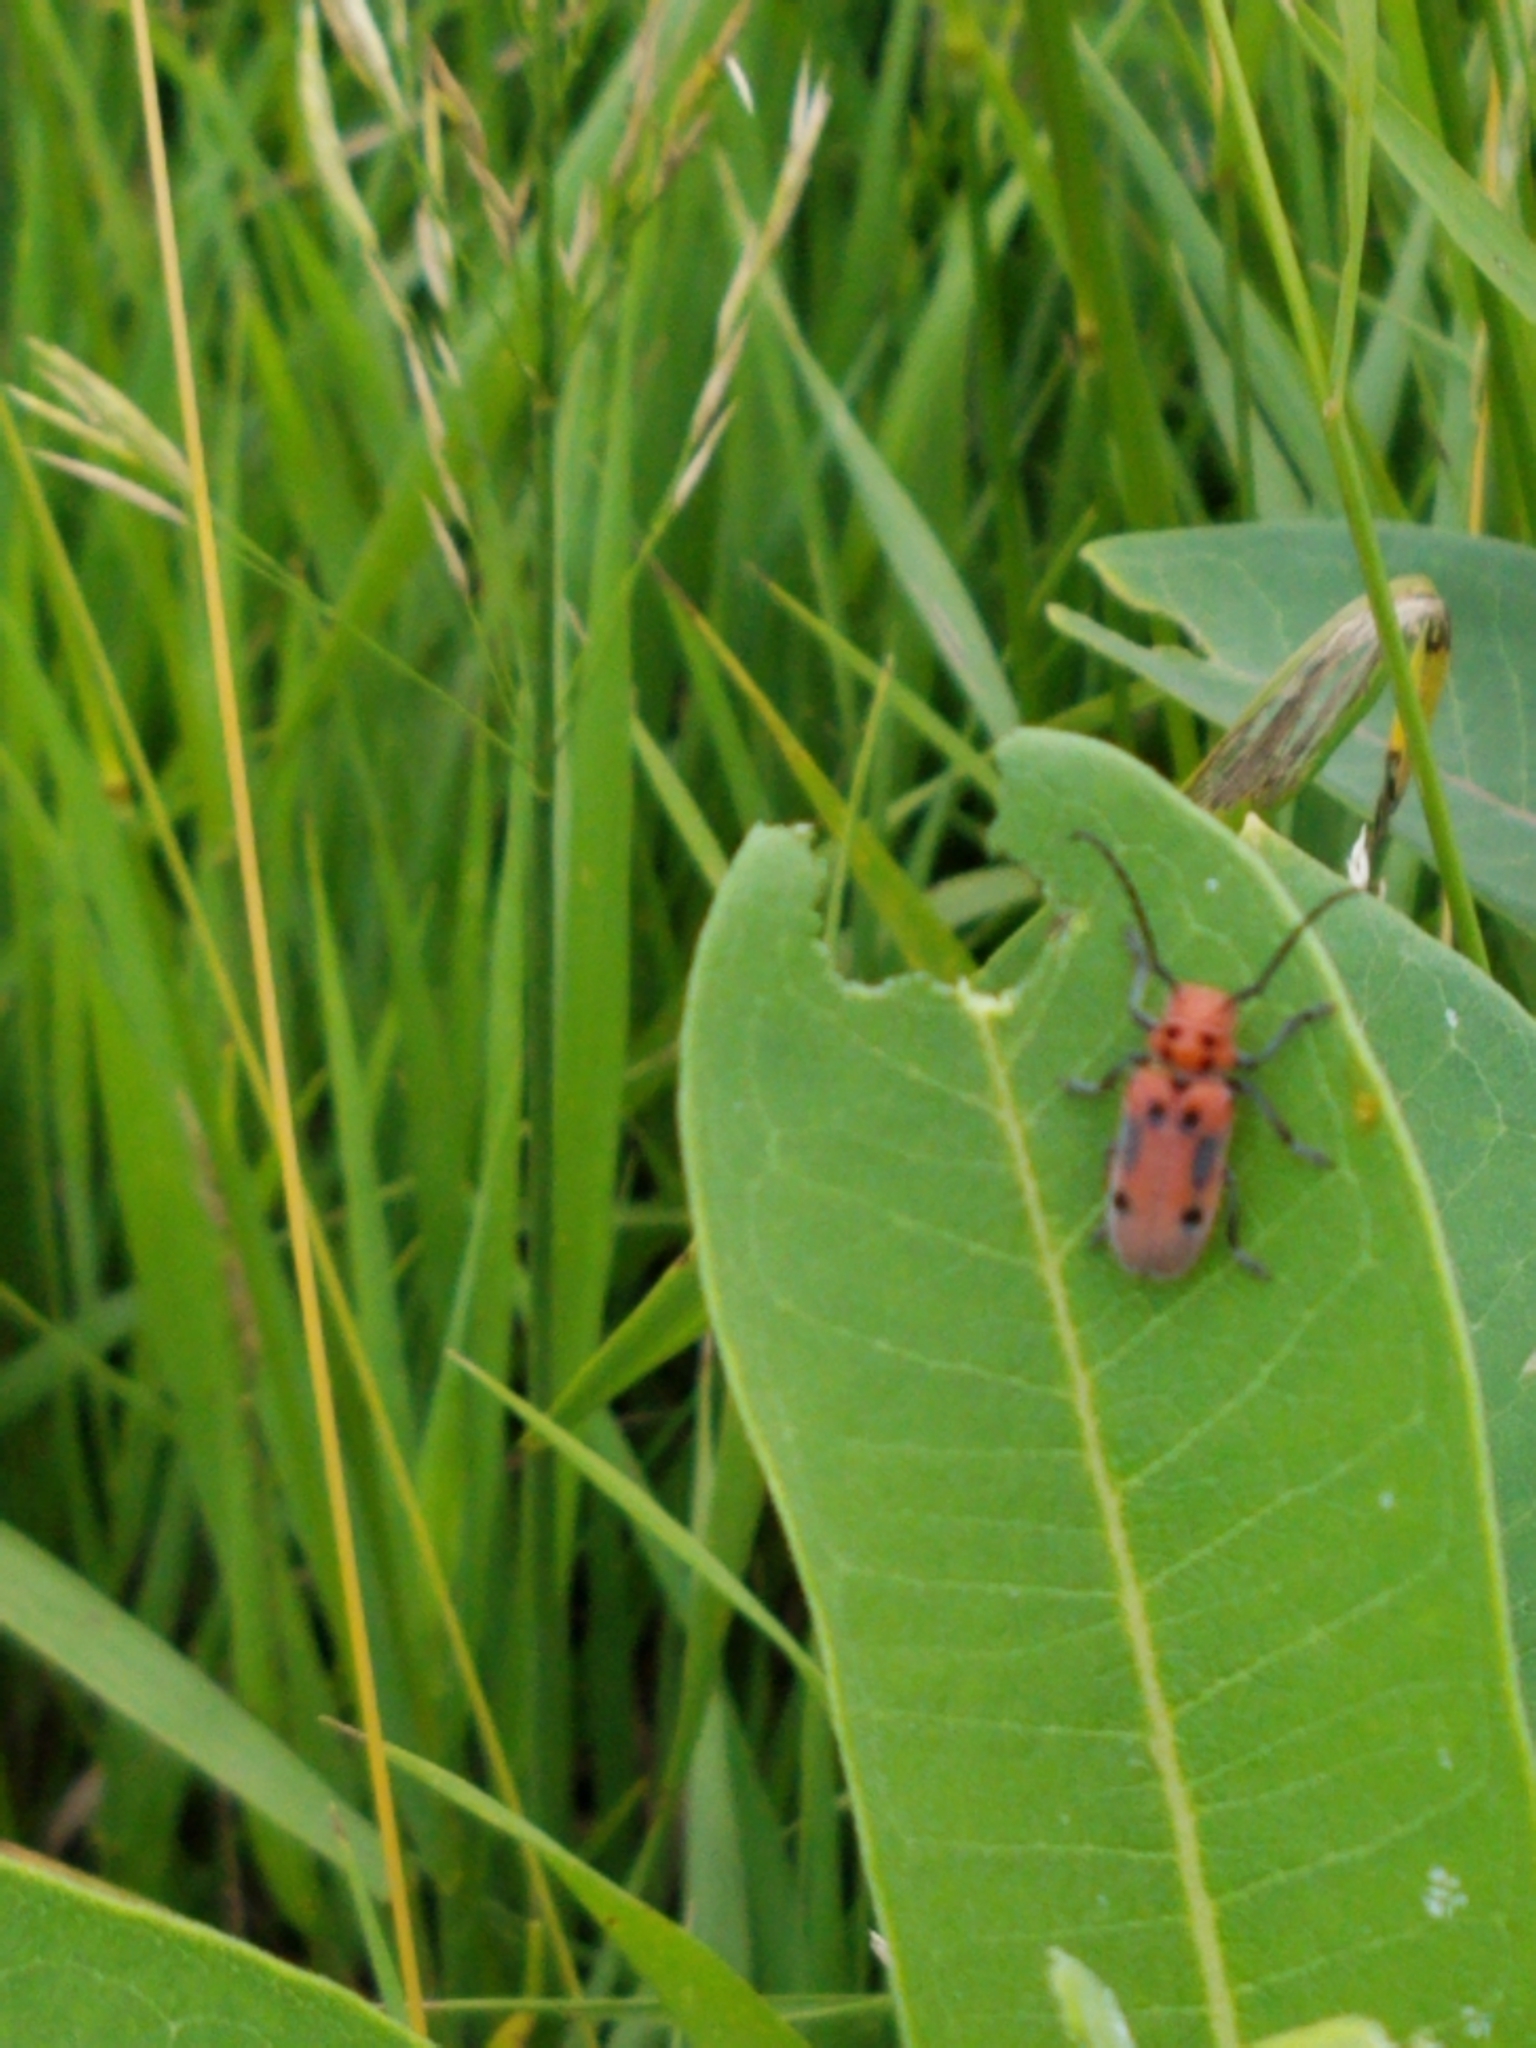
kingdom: Animalia
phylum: Arthropoda
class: Insecta
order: Coleoptera
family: Cerambycidae
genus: Tetraopes
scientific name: Tetraopes tetrophthalmus
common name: Red milkweed beetle
